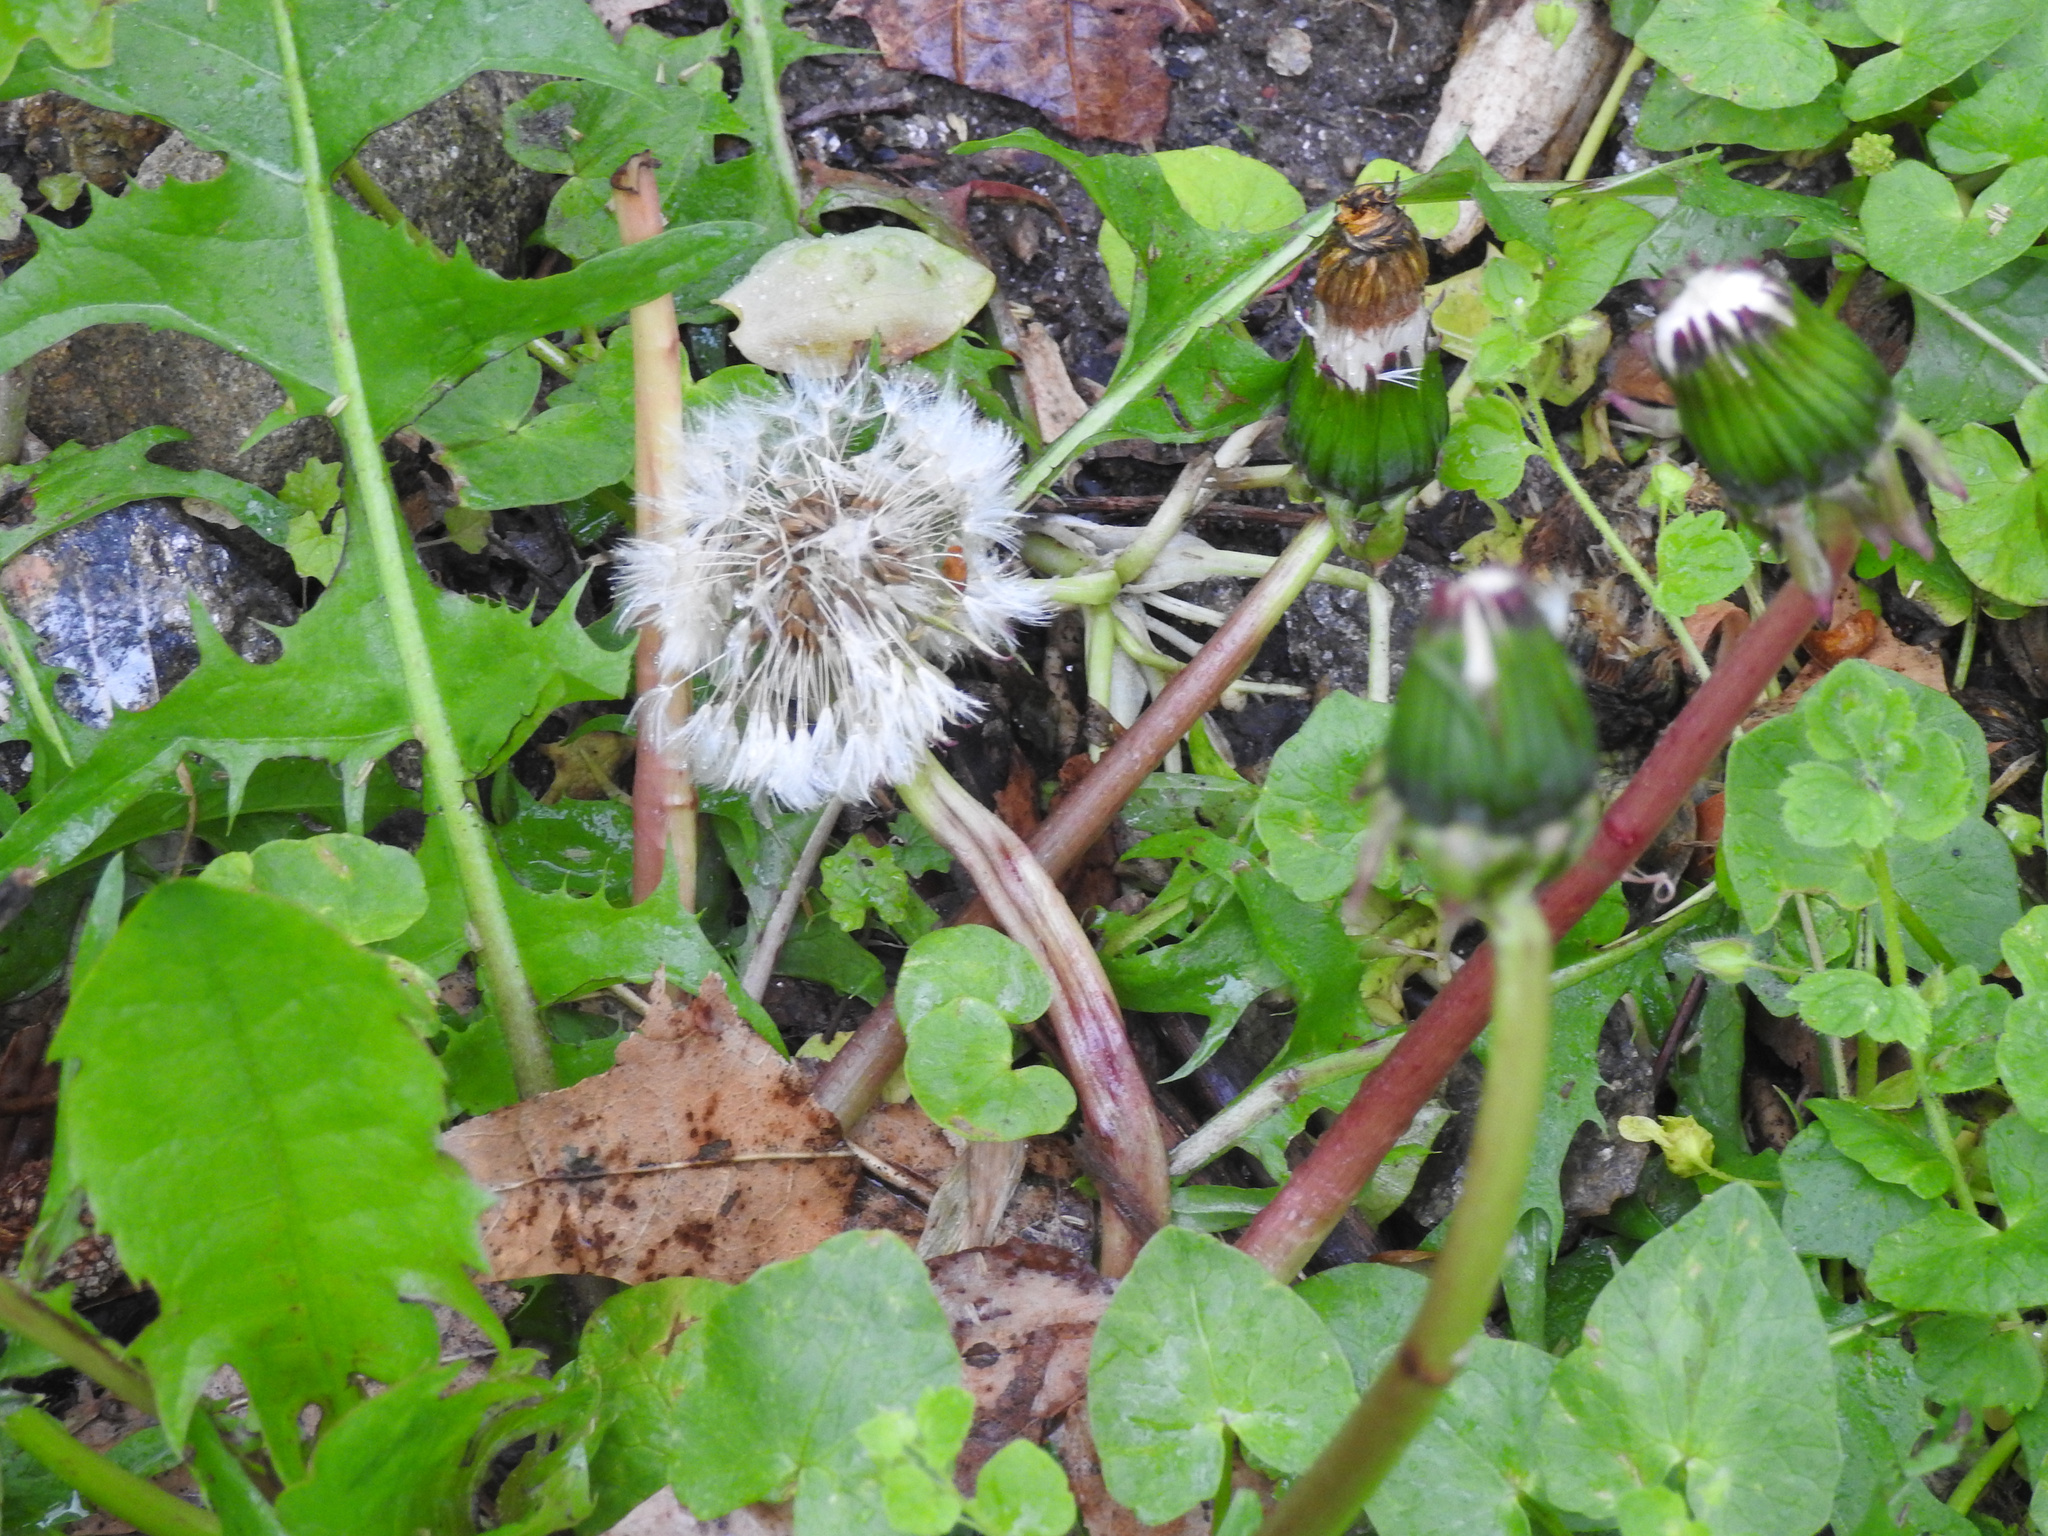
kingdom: Plantae
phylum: Tracheophyta
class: Magnoliopsida
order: Asterales
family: Asteraceae
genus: Taraxacum
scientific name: Taraxacum officinale
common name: Common dandelion
